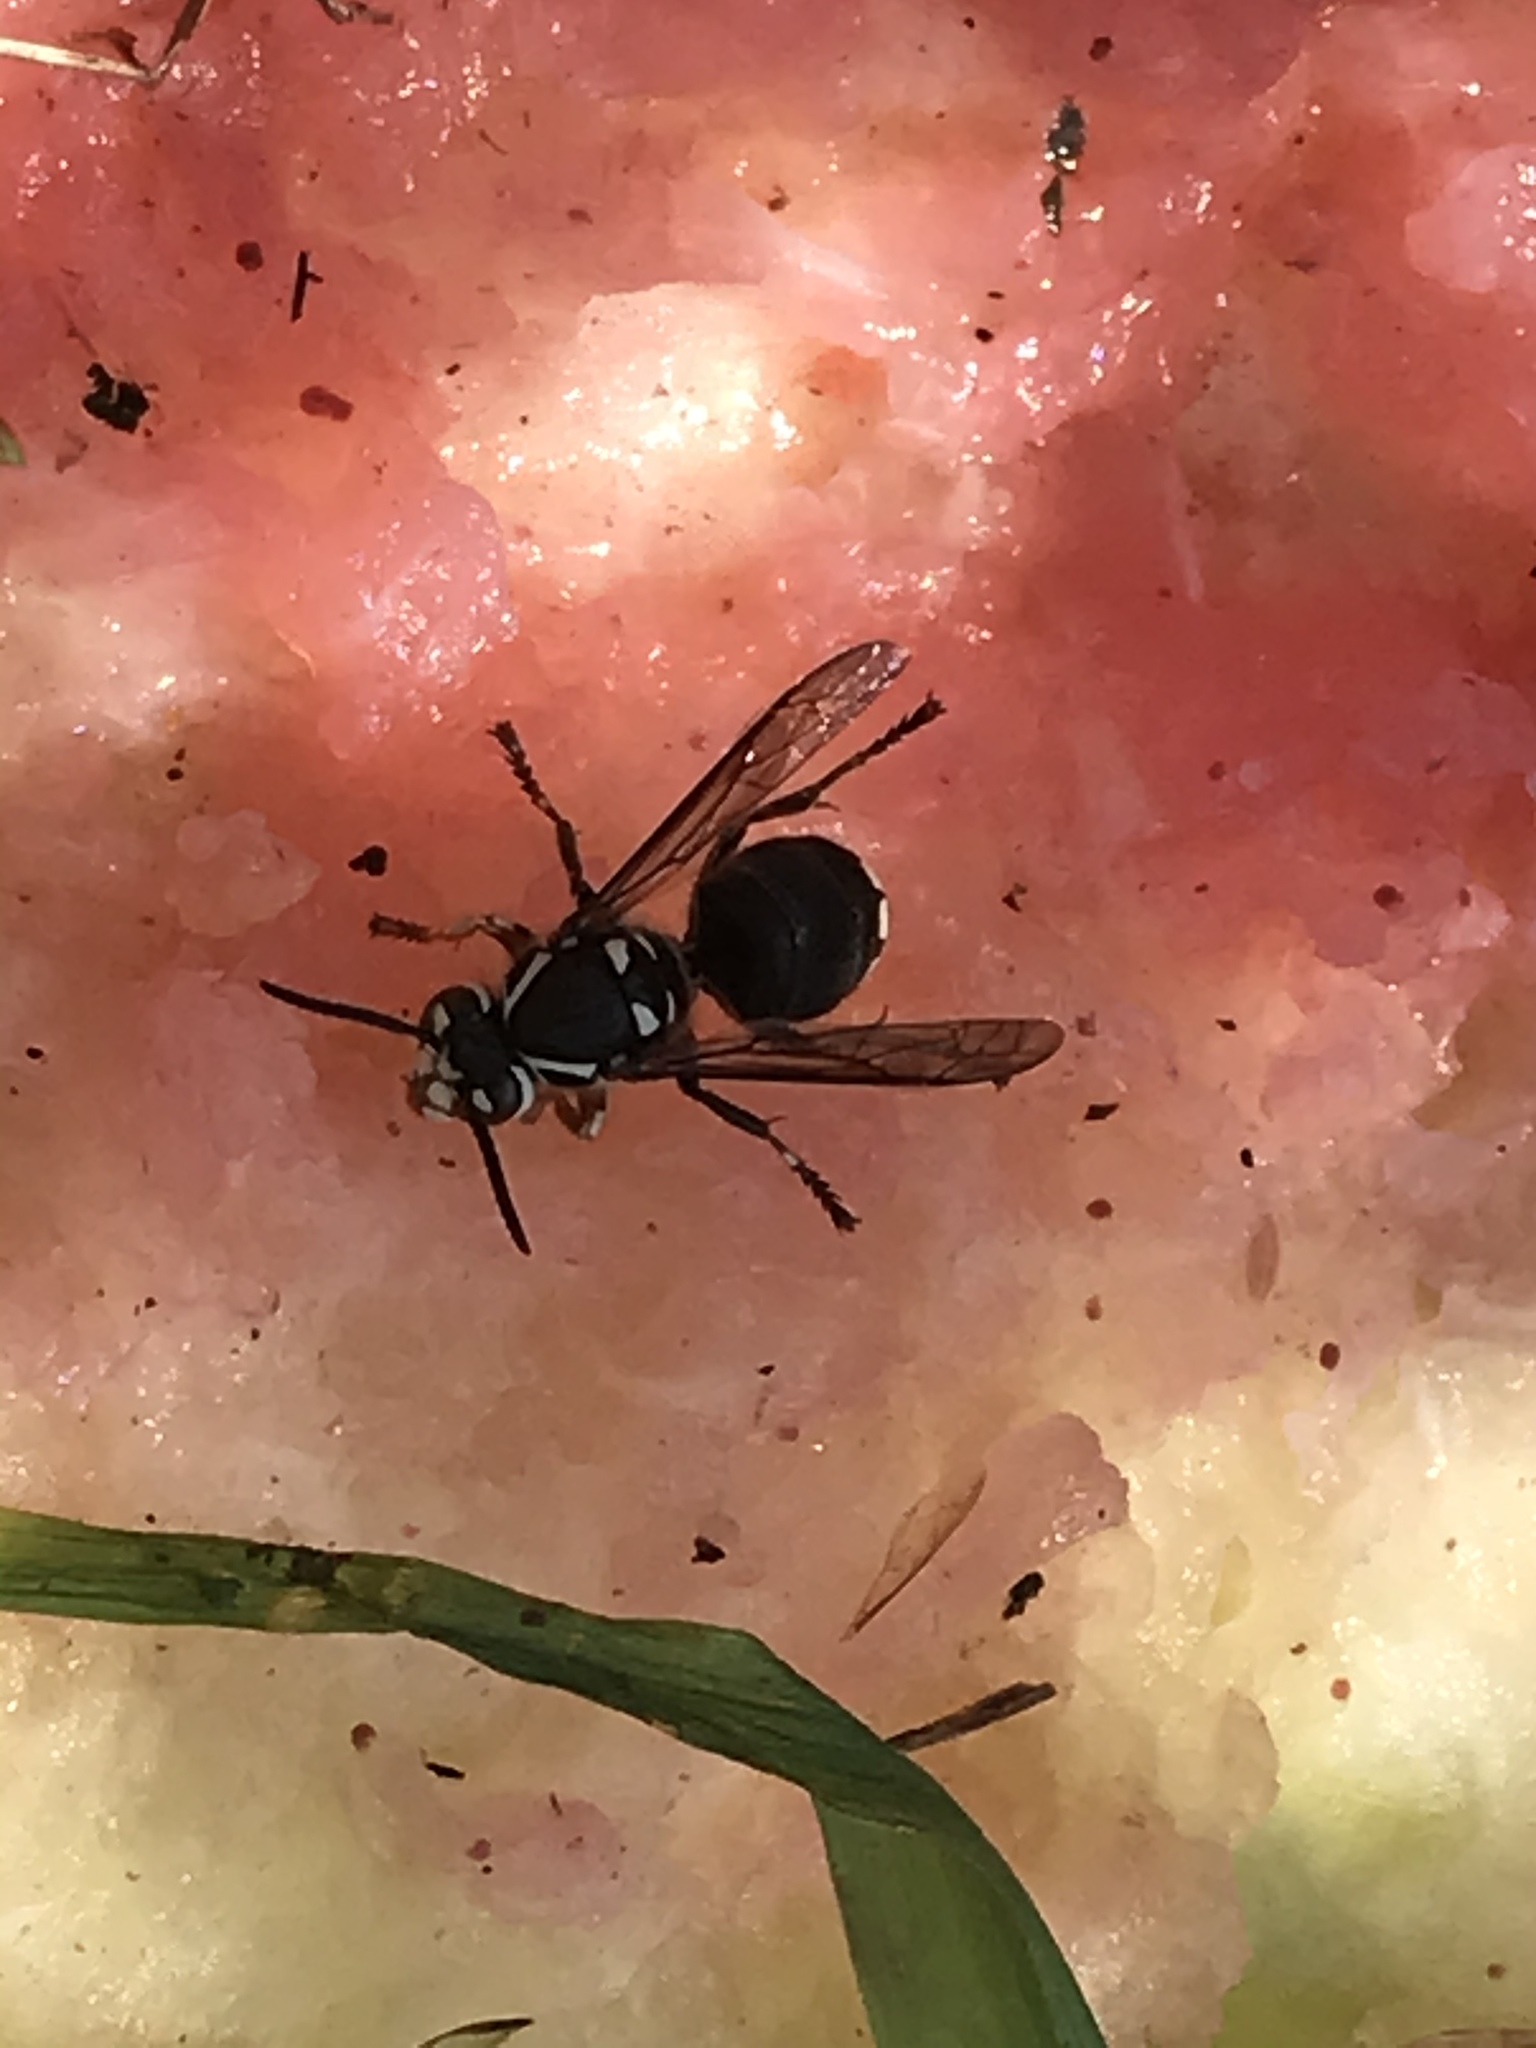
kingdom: Animalia
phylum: Arthropoda
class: Insecta
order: Hymenoptera
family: Vespidae
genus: Dolichovespula
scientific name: Dolichovespula maculata
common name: Bald-faced hornet
